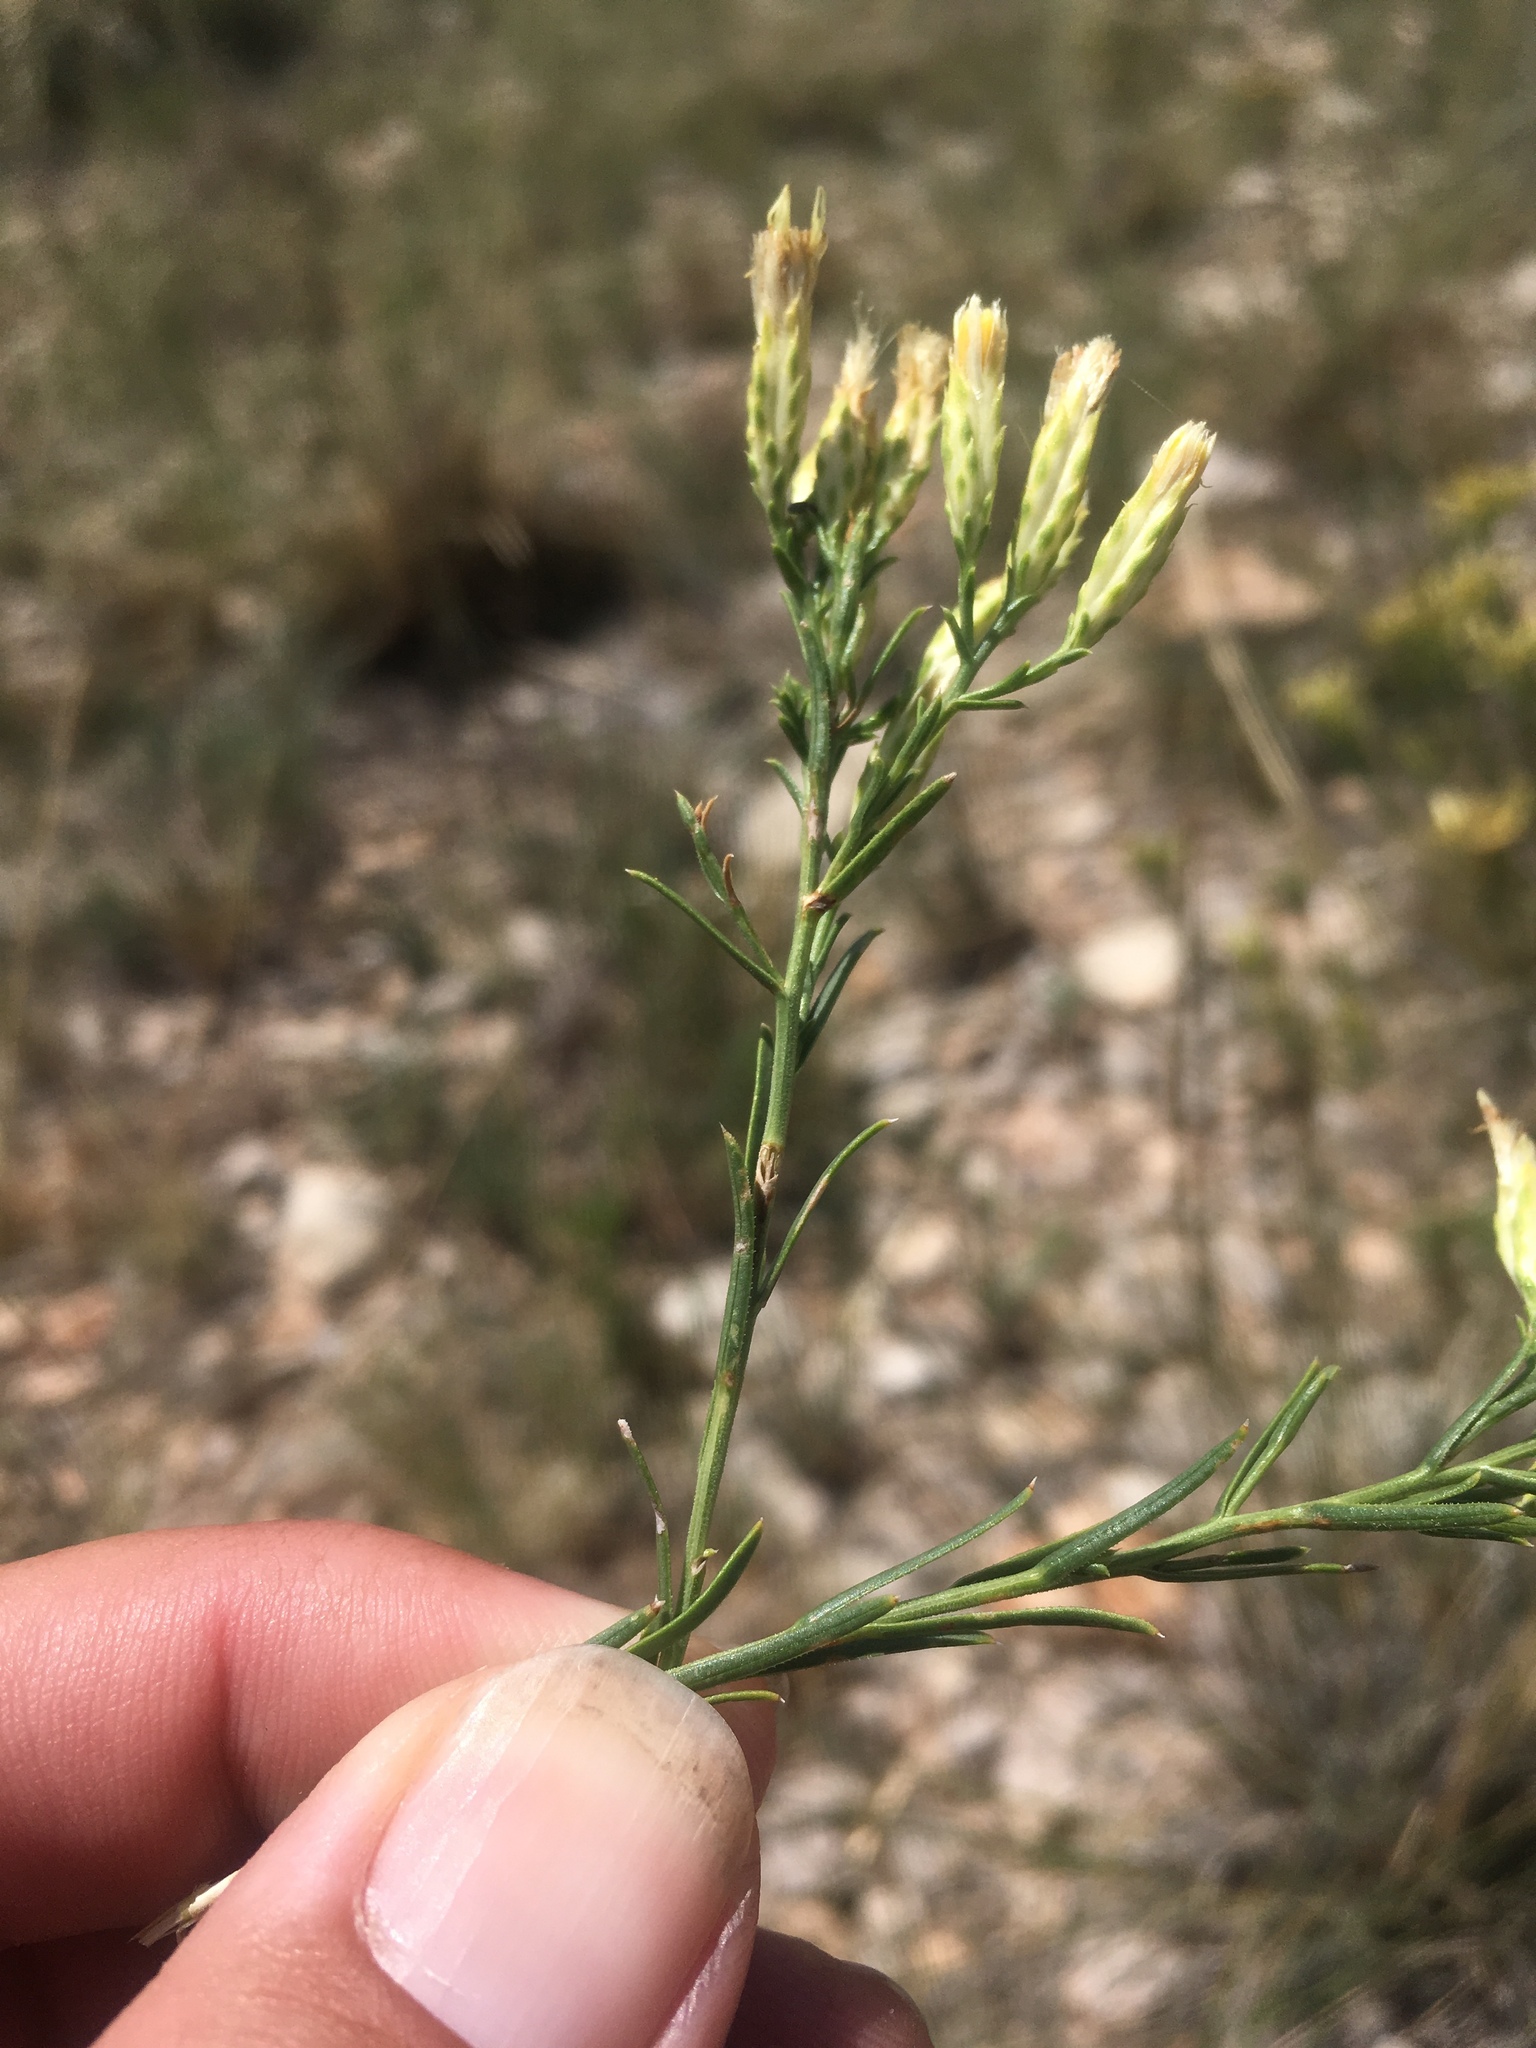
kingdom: Plantae
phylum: Tracheophyta
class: Magnoliopsida
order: Asterales
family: Asteraceae
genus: Lorandersonia
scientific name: Lorandersonia baileyi
